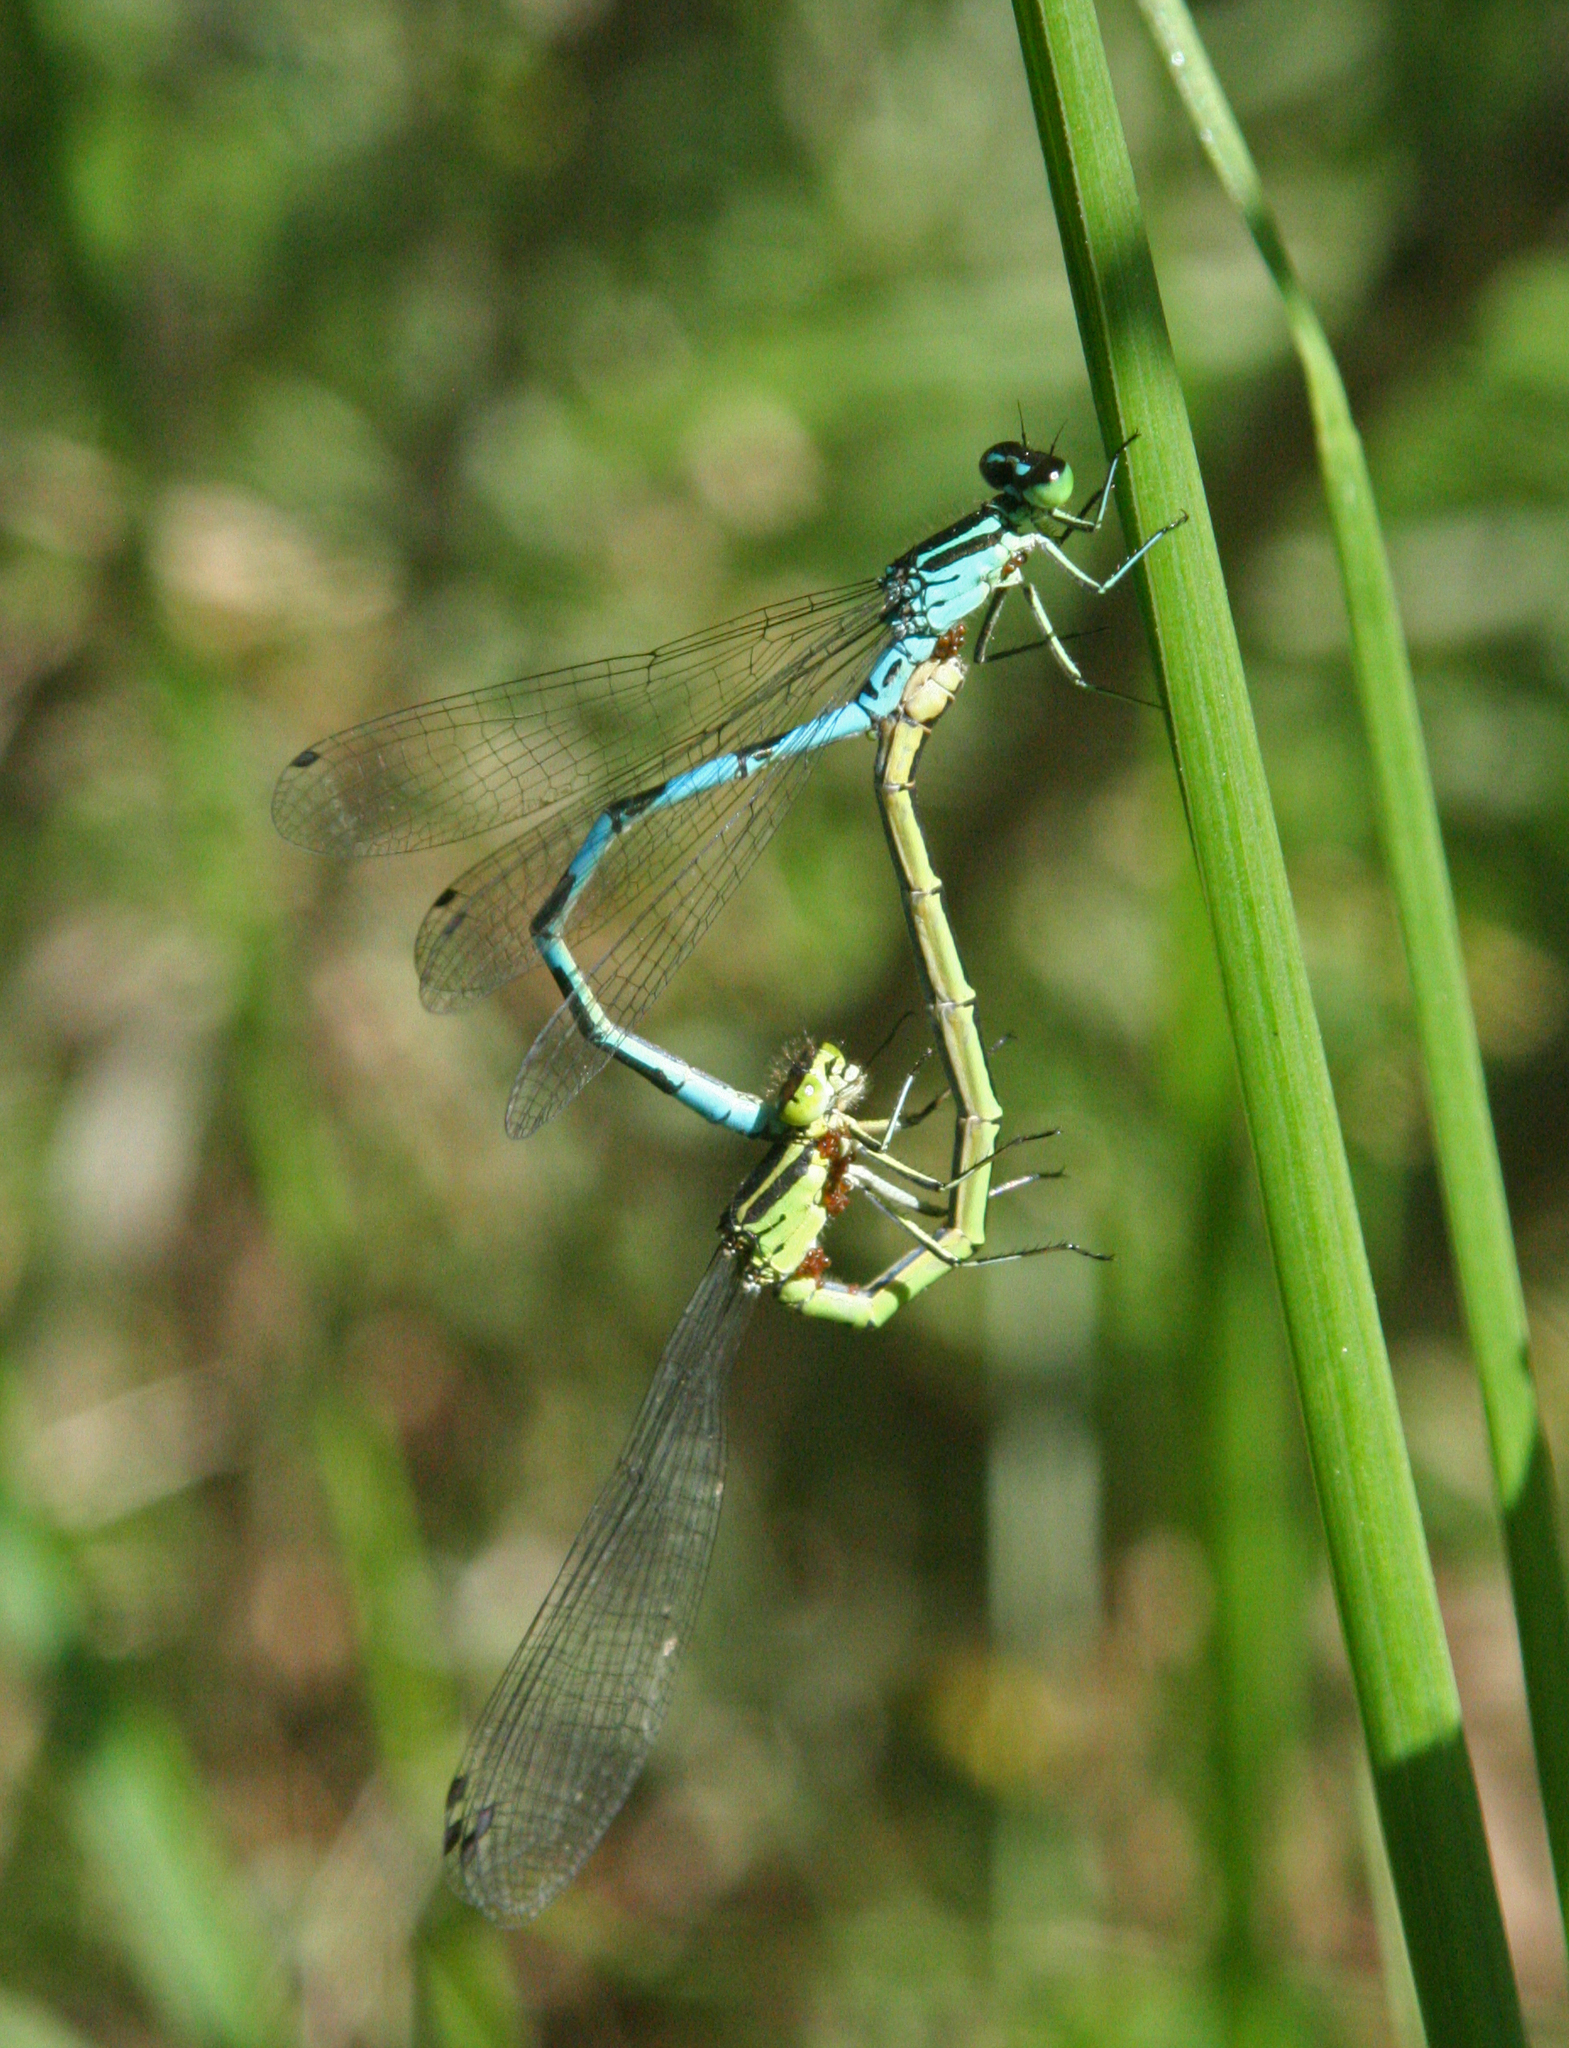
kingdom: Animalia
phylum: Arthropoda
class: Insecta
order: Odonata
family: Coenagrionidae
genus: Coenagrion
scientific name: Coenagrion hastulatum
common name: Spearhead bluet
